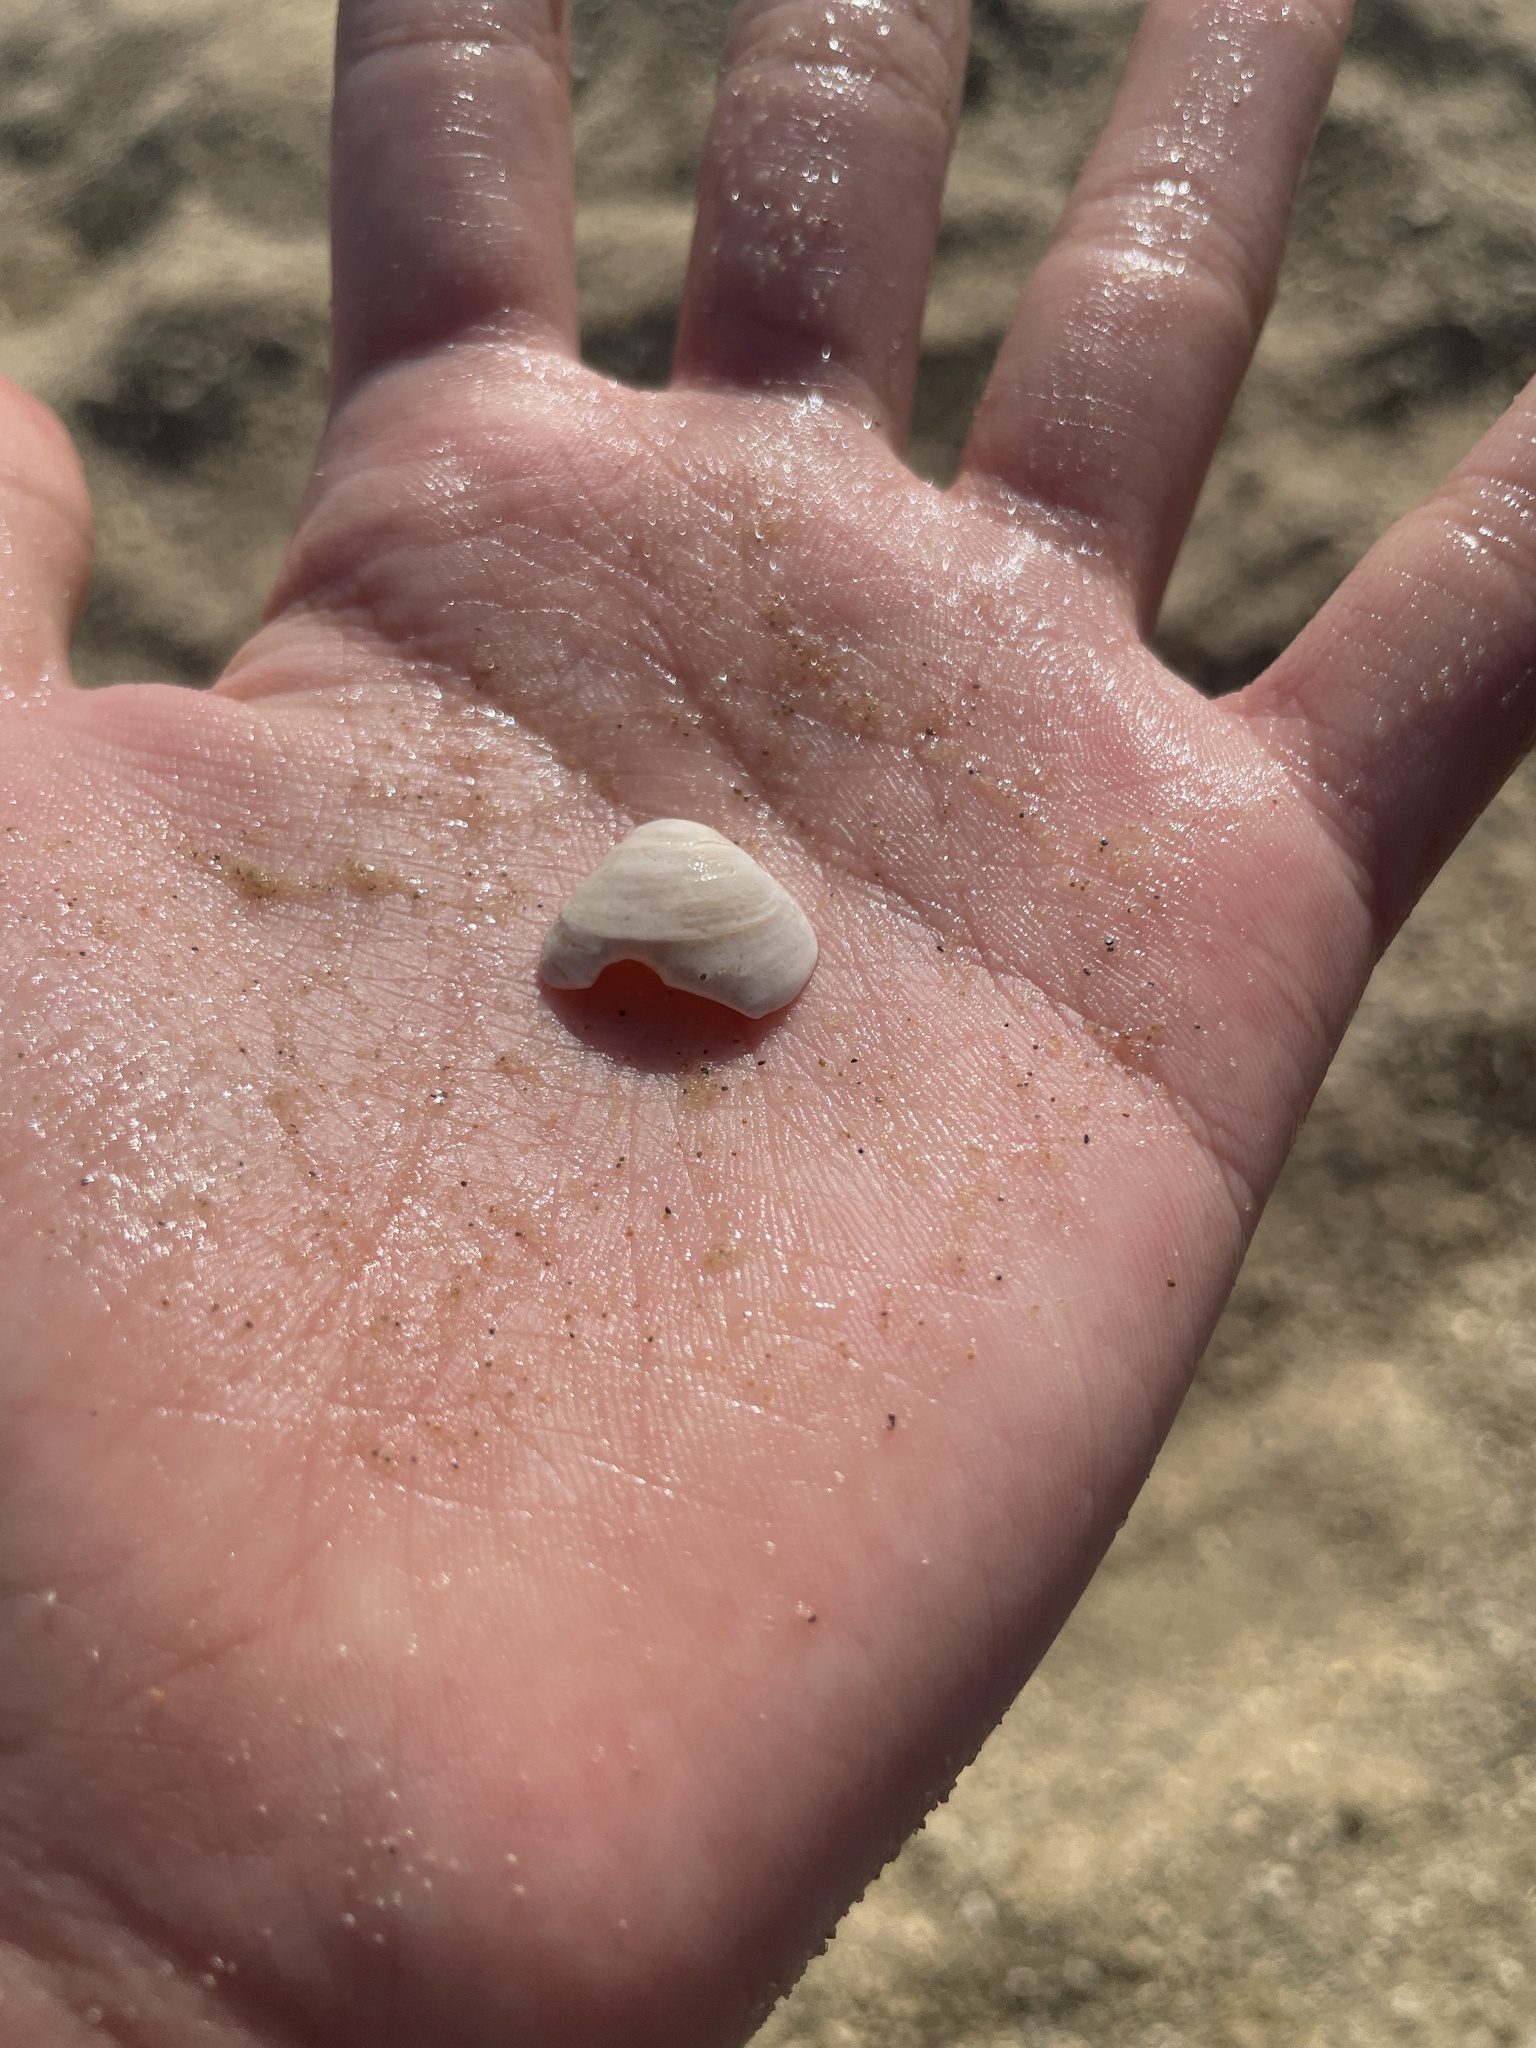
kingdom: Animalia
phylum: Mollusca
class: Bivalvia
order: Venerida
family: Cyrenidae
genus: Corbicula
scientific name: Corbicula fluminea
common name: Asian clam
